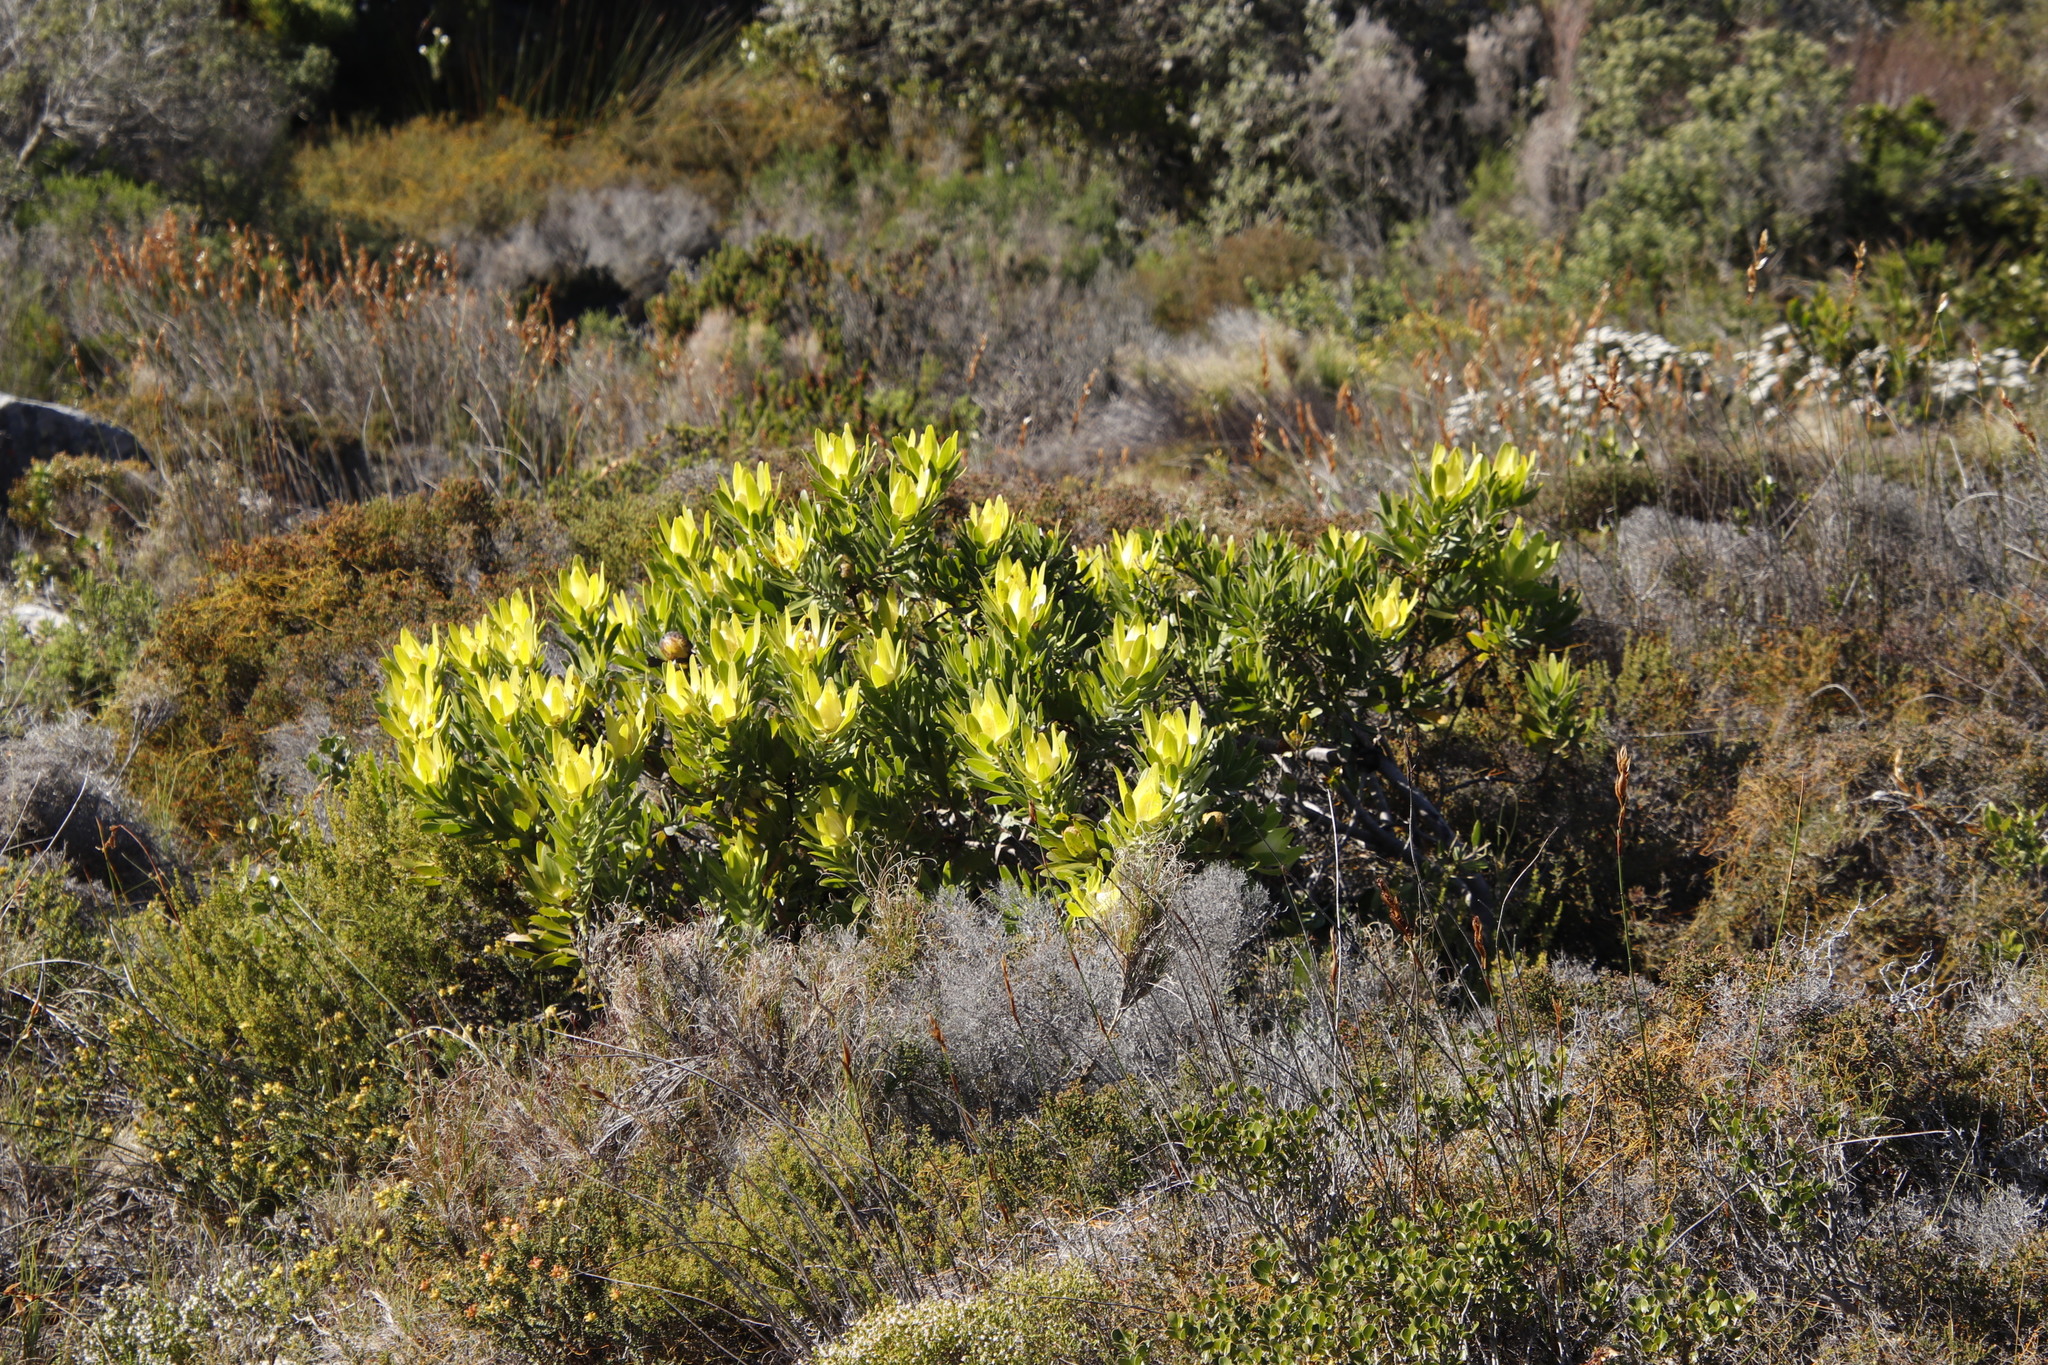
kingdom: Plantae
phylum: Tracheophyta
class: Magnoliopsida
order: Proteales
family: Proteaceae
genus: Leucadendron
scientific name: Leucadendron laureolum
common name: Golden sunshinebush
